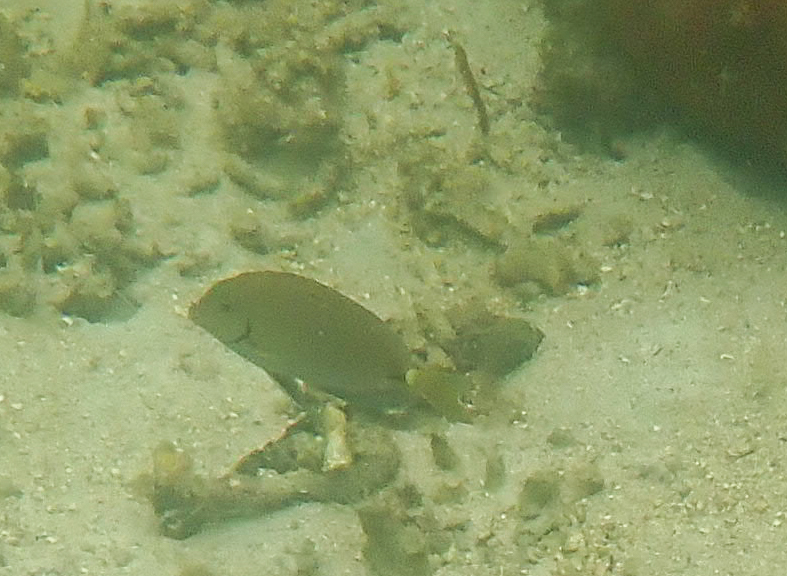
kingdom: Animalia
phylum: Chordata
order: Perciformes
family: Acanthuridae
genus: Acanthurus
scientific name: Acanthurus bahianus
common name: Ocean surgeon
